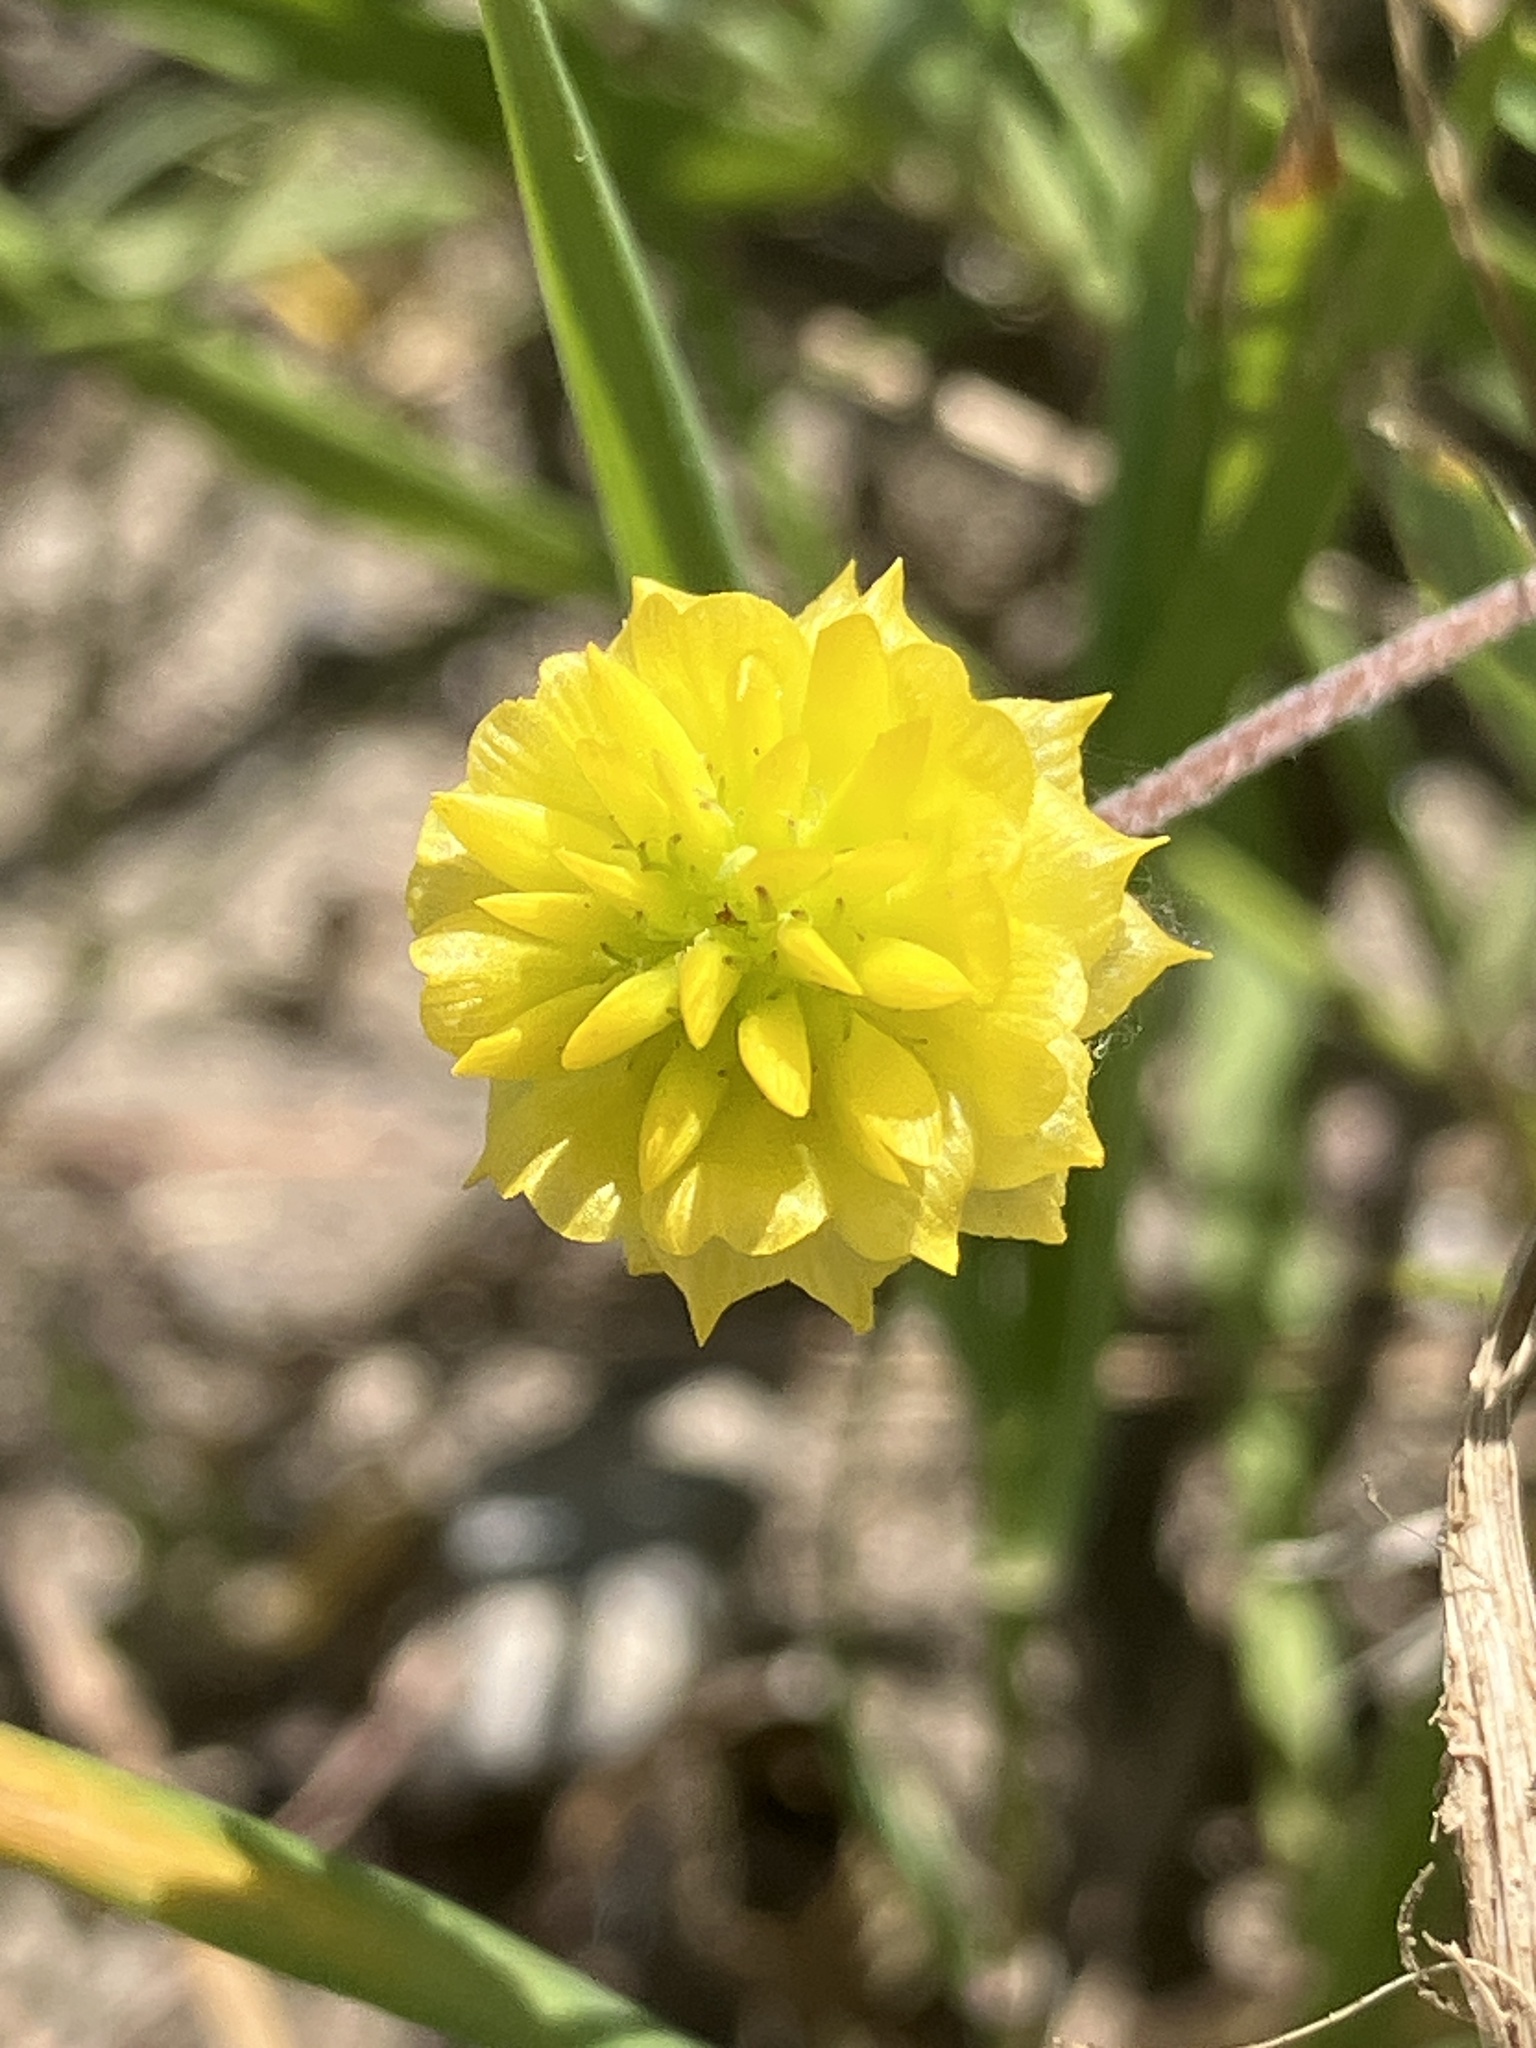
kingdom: Plantae
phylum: Tracheophyta
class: Magnoliopsida
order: Fabales
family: Fabaceae
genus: Trifolium
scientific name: Trifolium campestre
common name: Field clover
